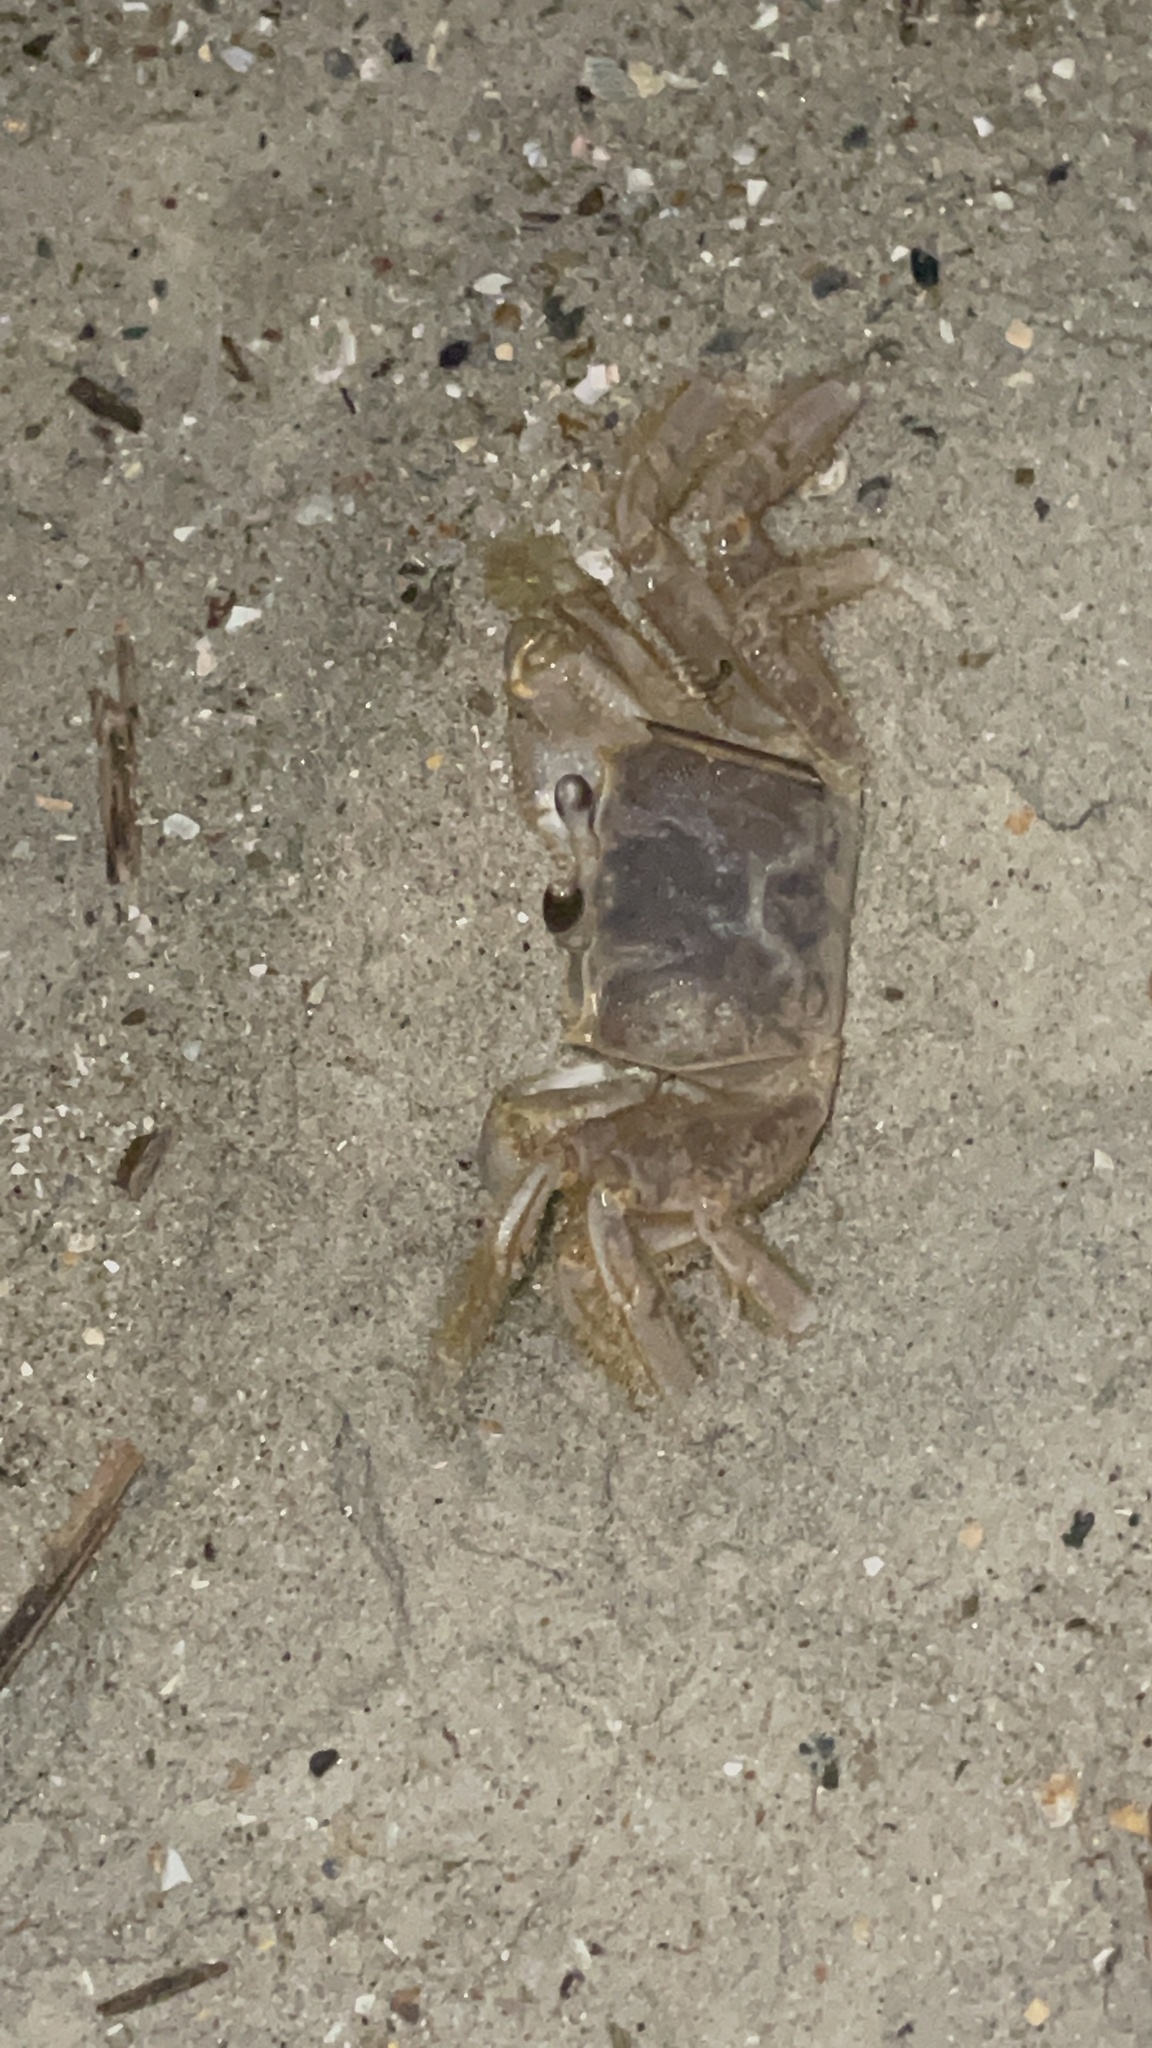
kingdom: Animalia
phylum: Arthropoda
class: Malacostraca
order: Decapoda
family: Ocypodidae
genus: Ocypode
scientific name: Ocypode quadrata
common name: Ghost crab
